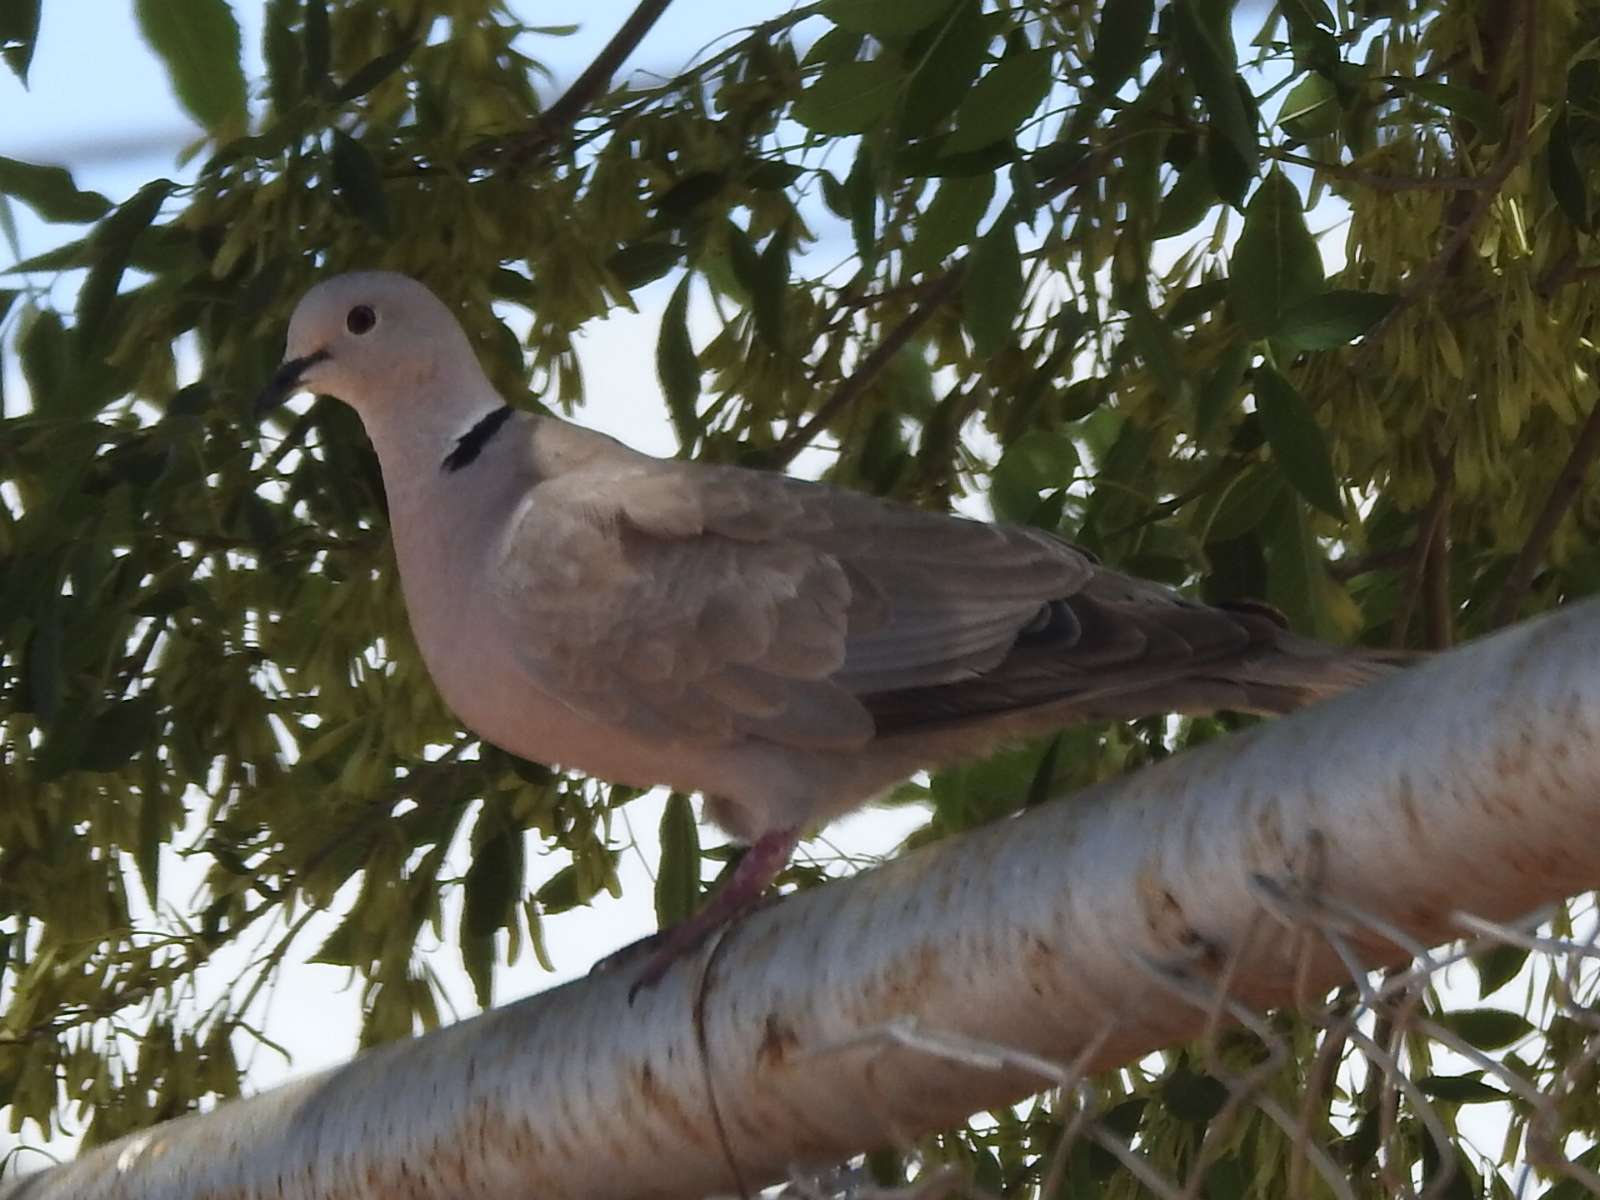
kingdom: Animalia
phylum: Chordata
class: Aves
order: Columbiformes
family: Columbidae
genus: Streptopelia
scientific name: Streptopelia decaocto
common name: Eurasian collared dove
